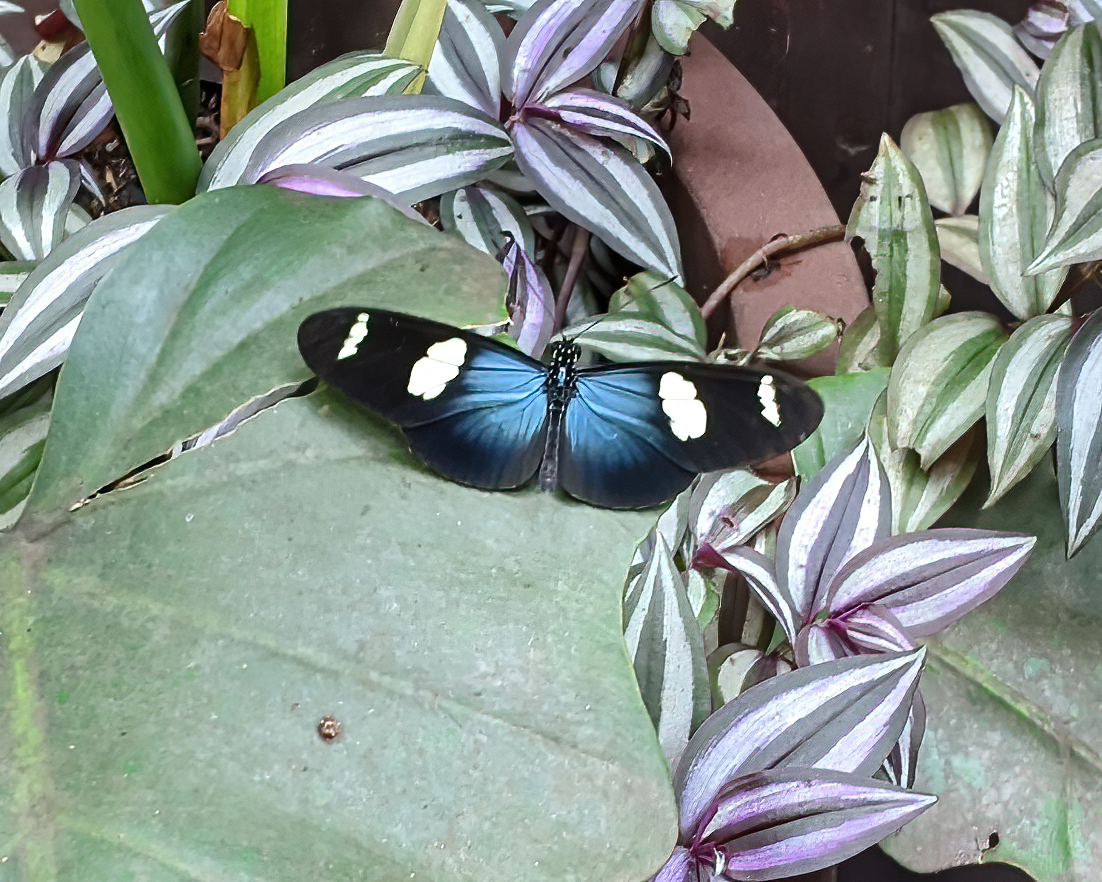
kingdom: Animalia
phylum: Arthropoda
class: Insecta
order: Lepidoptera
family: Nymphalidae
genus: Heliconius
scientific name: Heliconius sara
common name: Sara longwing
